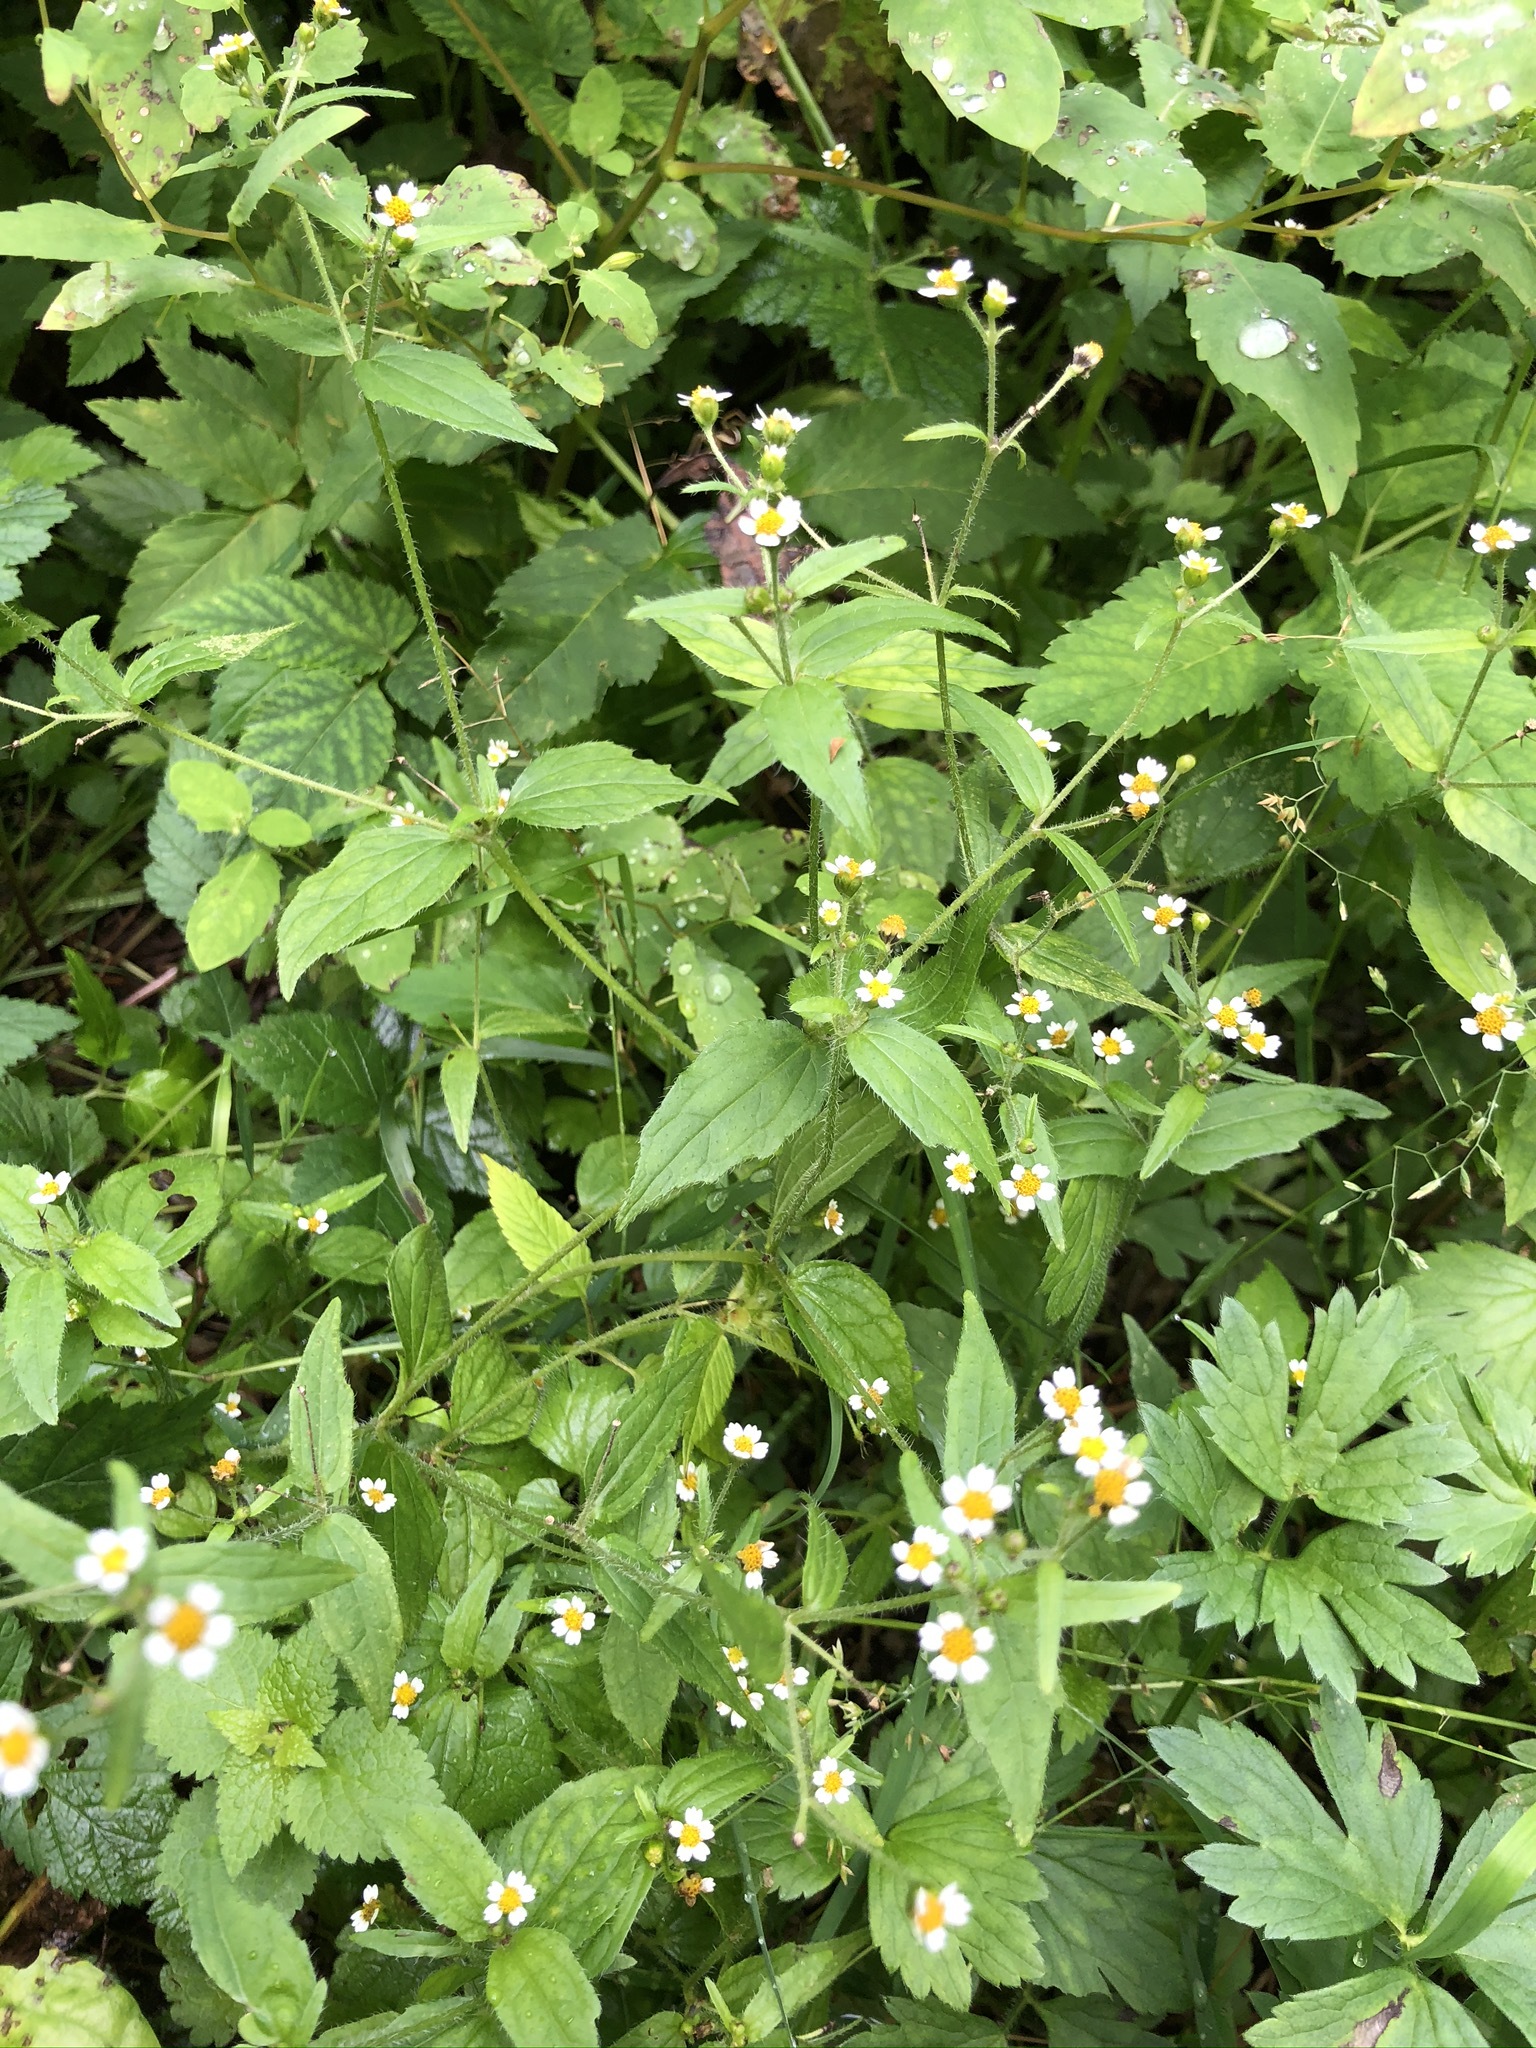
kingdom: Plantae
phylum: Tracheophyta
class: Magnoliopsida
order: Asterales
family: Asteraceae
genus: Galinsoga
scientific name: Galinsoga quadriradiata
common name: Shaggy soldier
